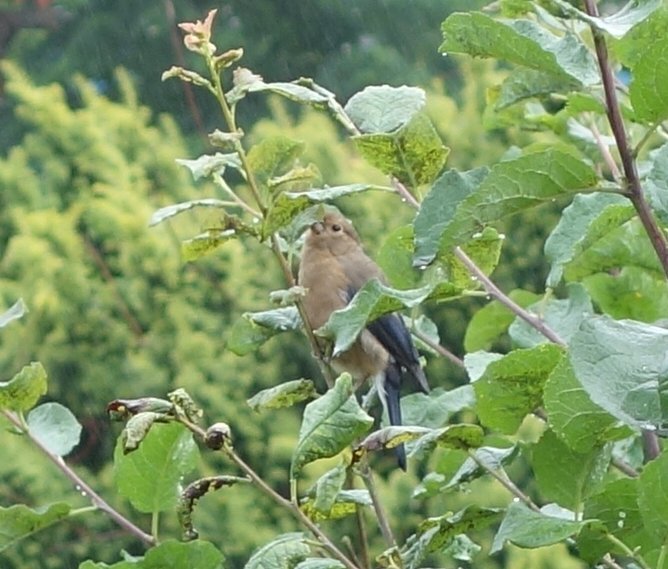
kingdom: Animalia
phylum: Chordata
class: Aves
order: Passeriformes
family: Fringillidae
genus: Pyrrhula
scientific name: Pyrrhula pyrrhula
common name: Eurasian bullfinch
